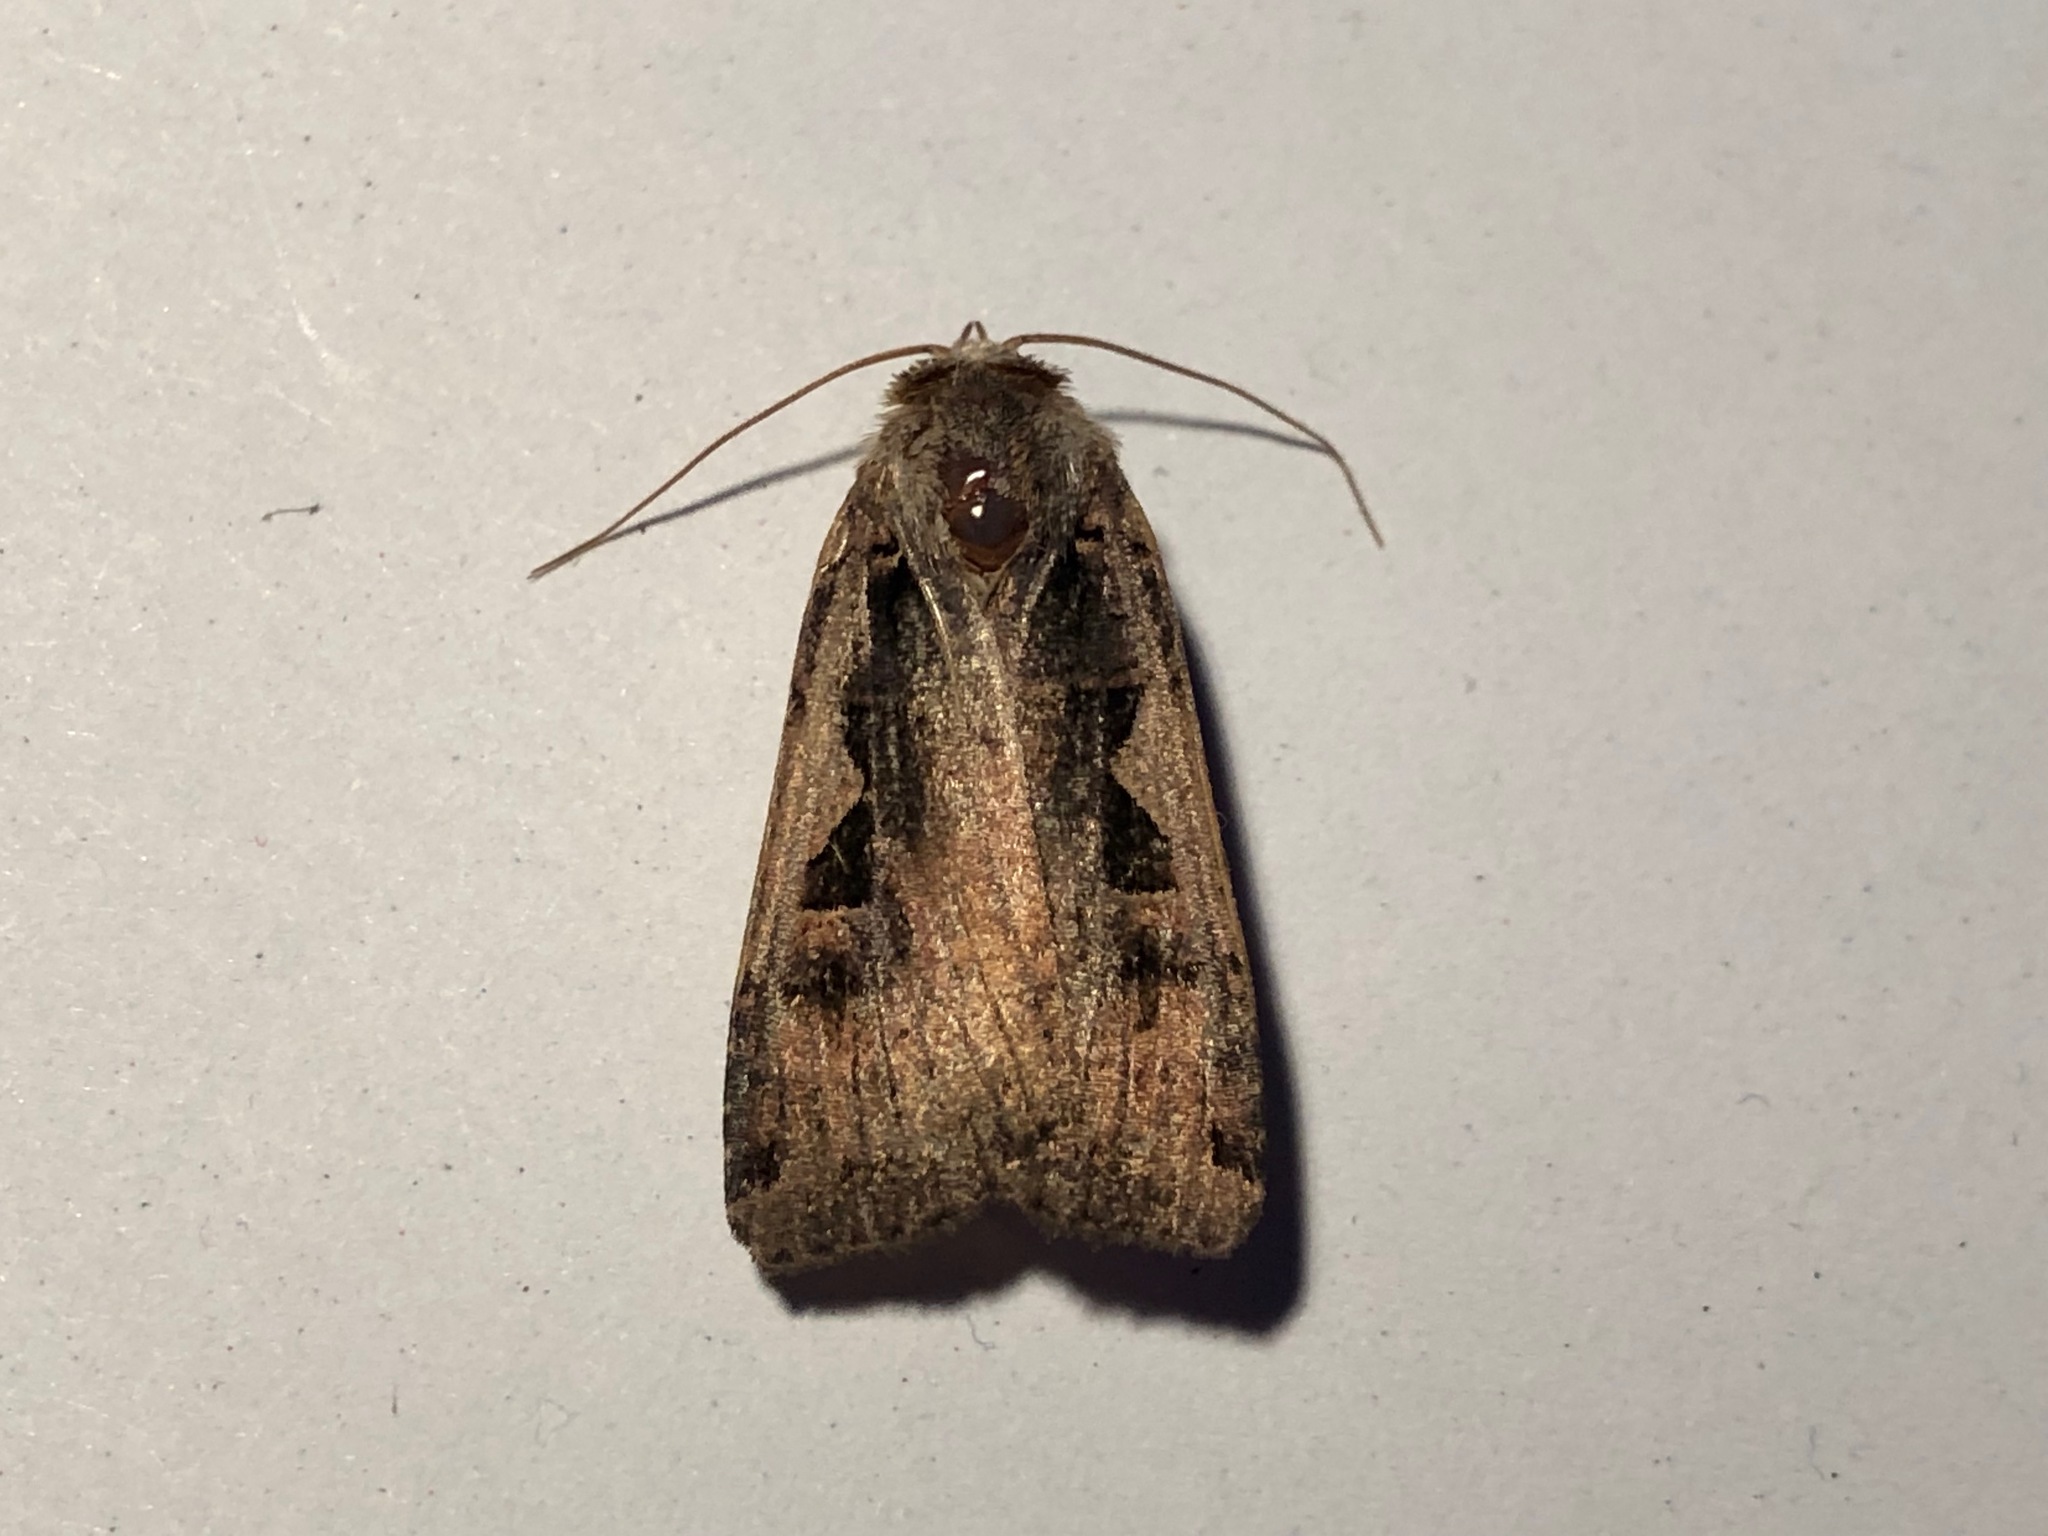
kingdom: Animalia
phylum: Arthropoda
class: Insecta
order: Lepidoptera
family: Noctuidae
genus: Xestia
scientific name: Xestia c-nigrum
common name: Setaceous hebrew character
